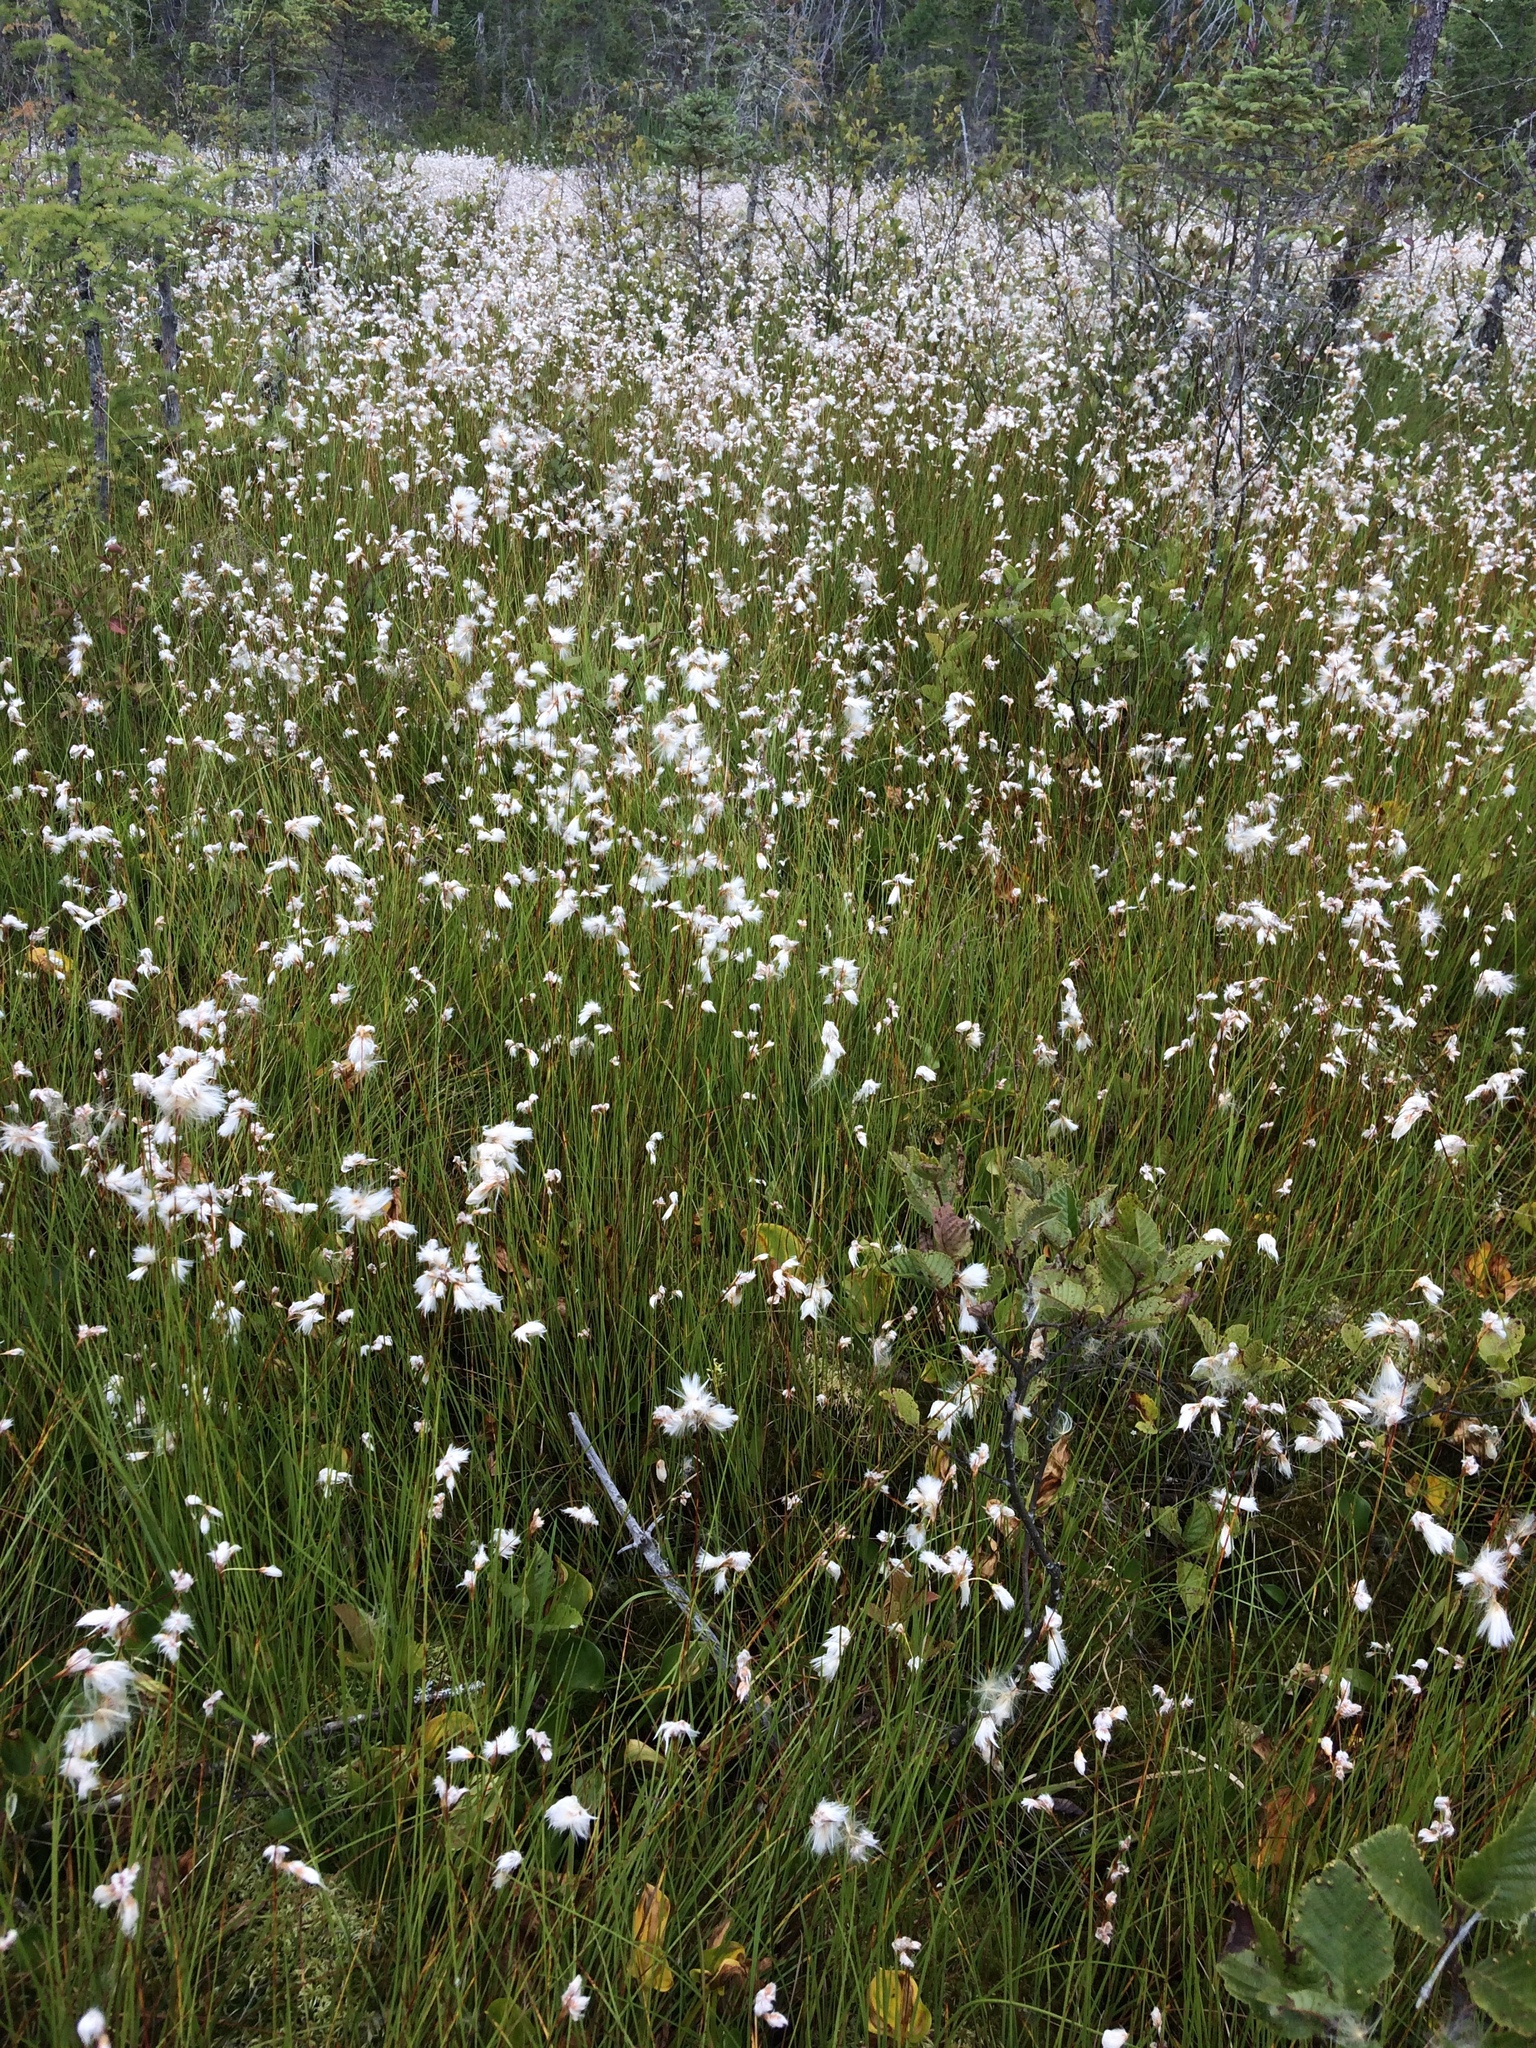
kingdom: Plantae
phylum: Tracheophyta
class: Liliopsida
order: Poales
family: Cyperaceae
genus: Eriophorum
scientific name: Eriophorum vaginatum
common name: Hare's-tail cottongrass
